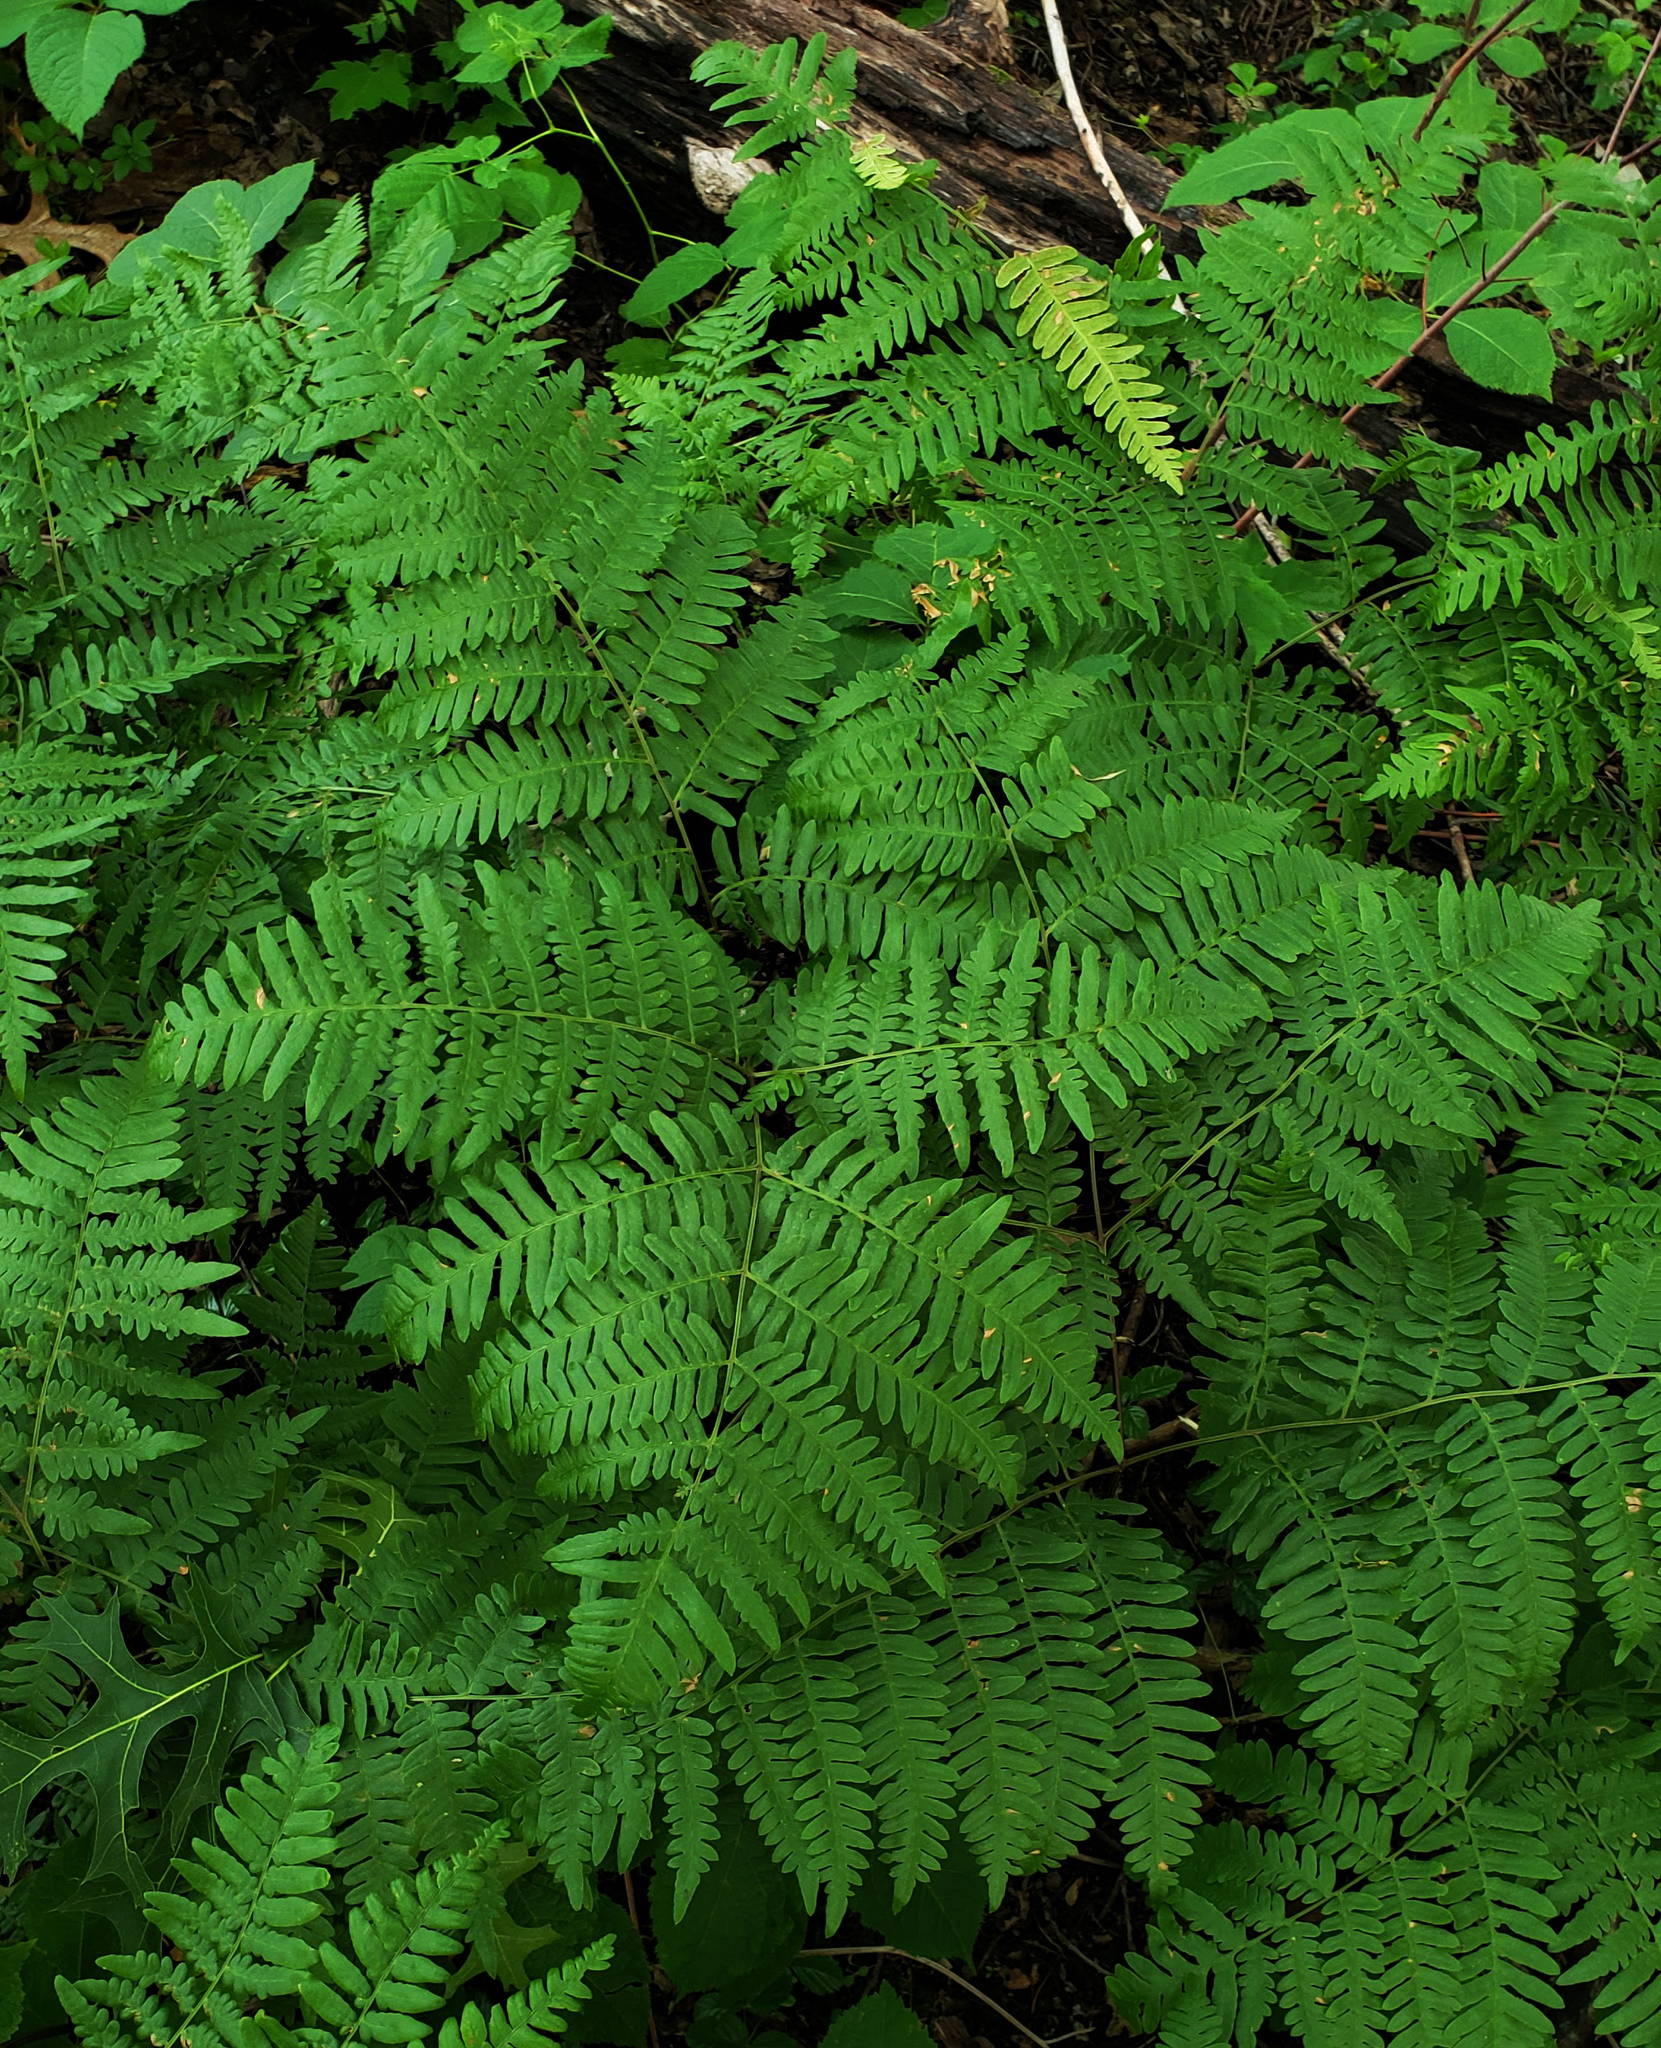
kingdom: Plantae
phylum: Tracheophyta
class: Polypodiopsida
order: Polypodiales
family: Dennstaedtiaceae
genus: Pteridium
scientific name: Pteridium aquilinum
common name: Bracken
